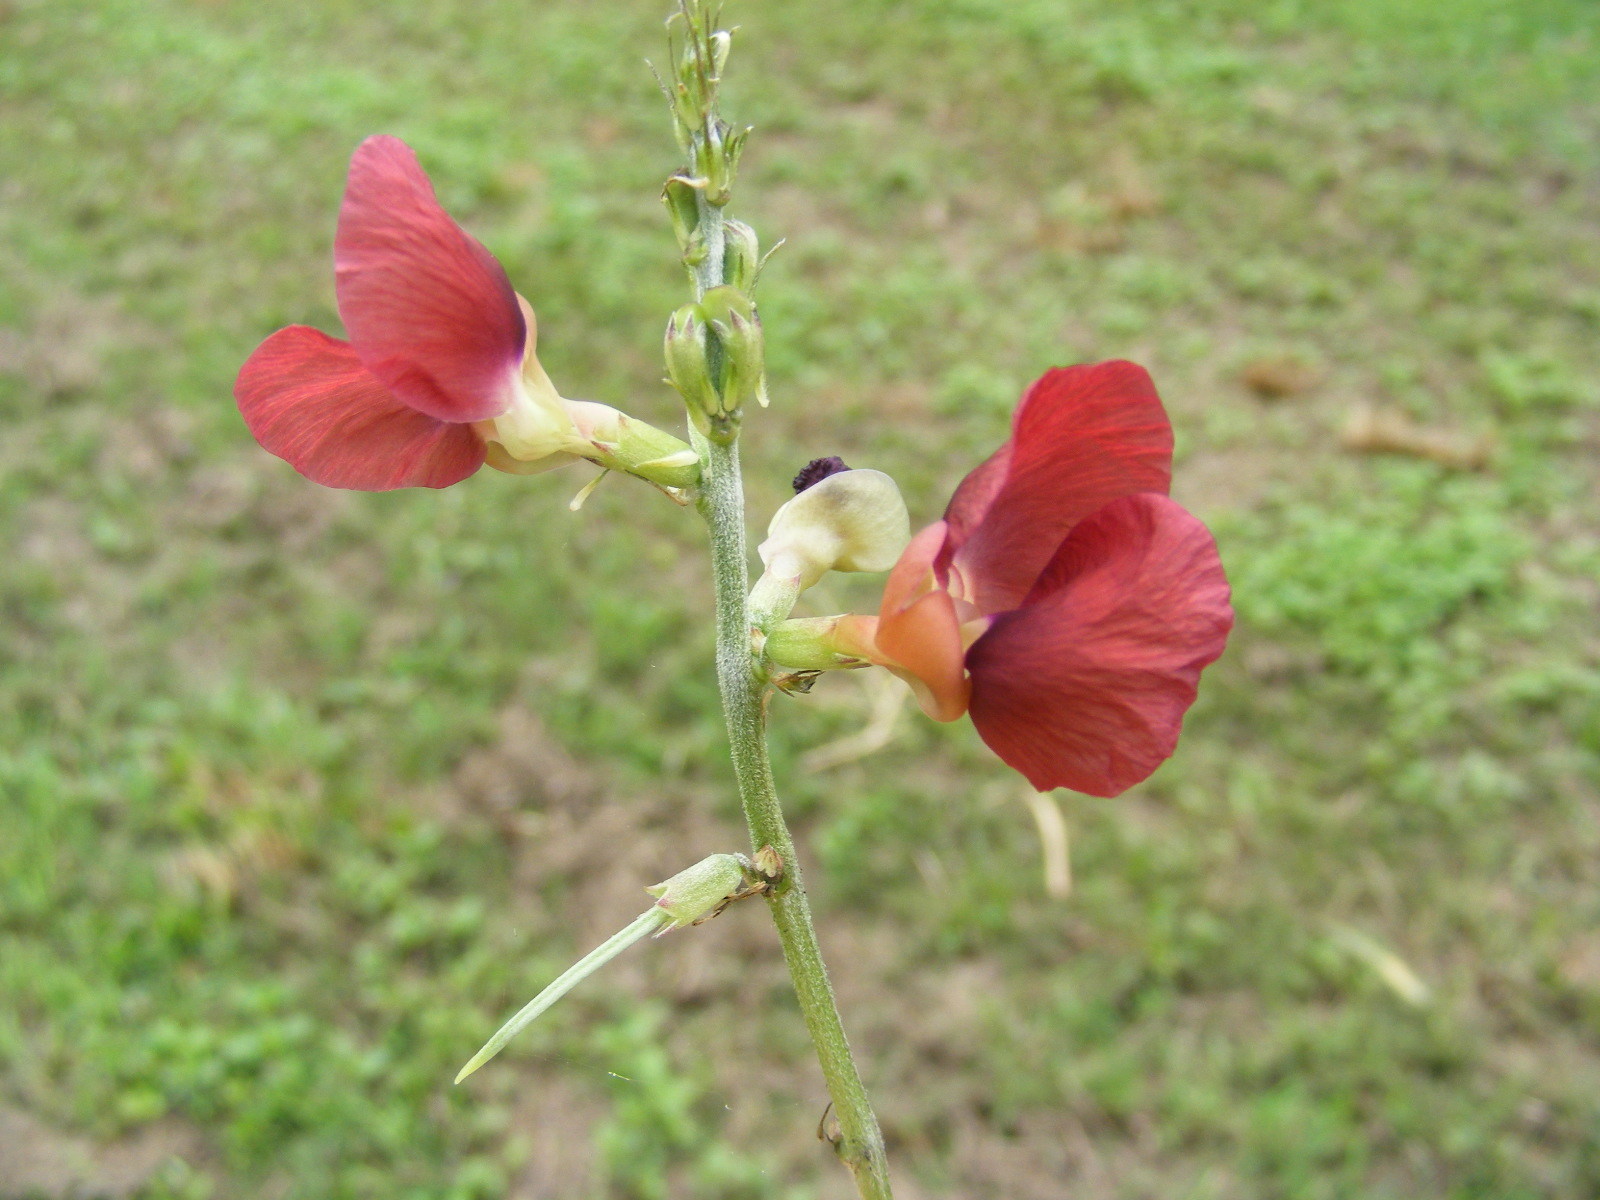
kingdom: Plantae
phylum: Tracheophyta
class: Magnoliopsida
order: Fabales
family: Fabaceae
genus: Macroptilium
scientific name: Macroptilium lathyroides
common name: Wild bushbean
